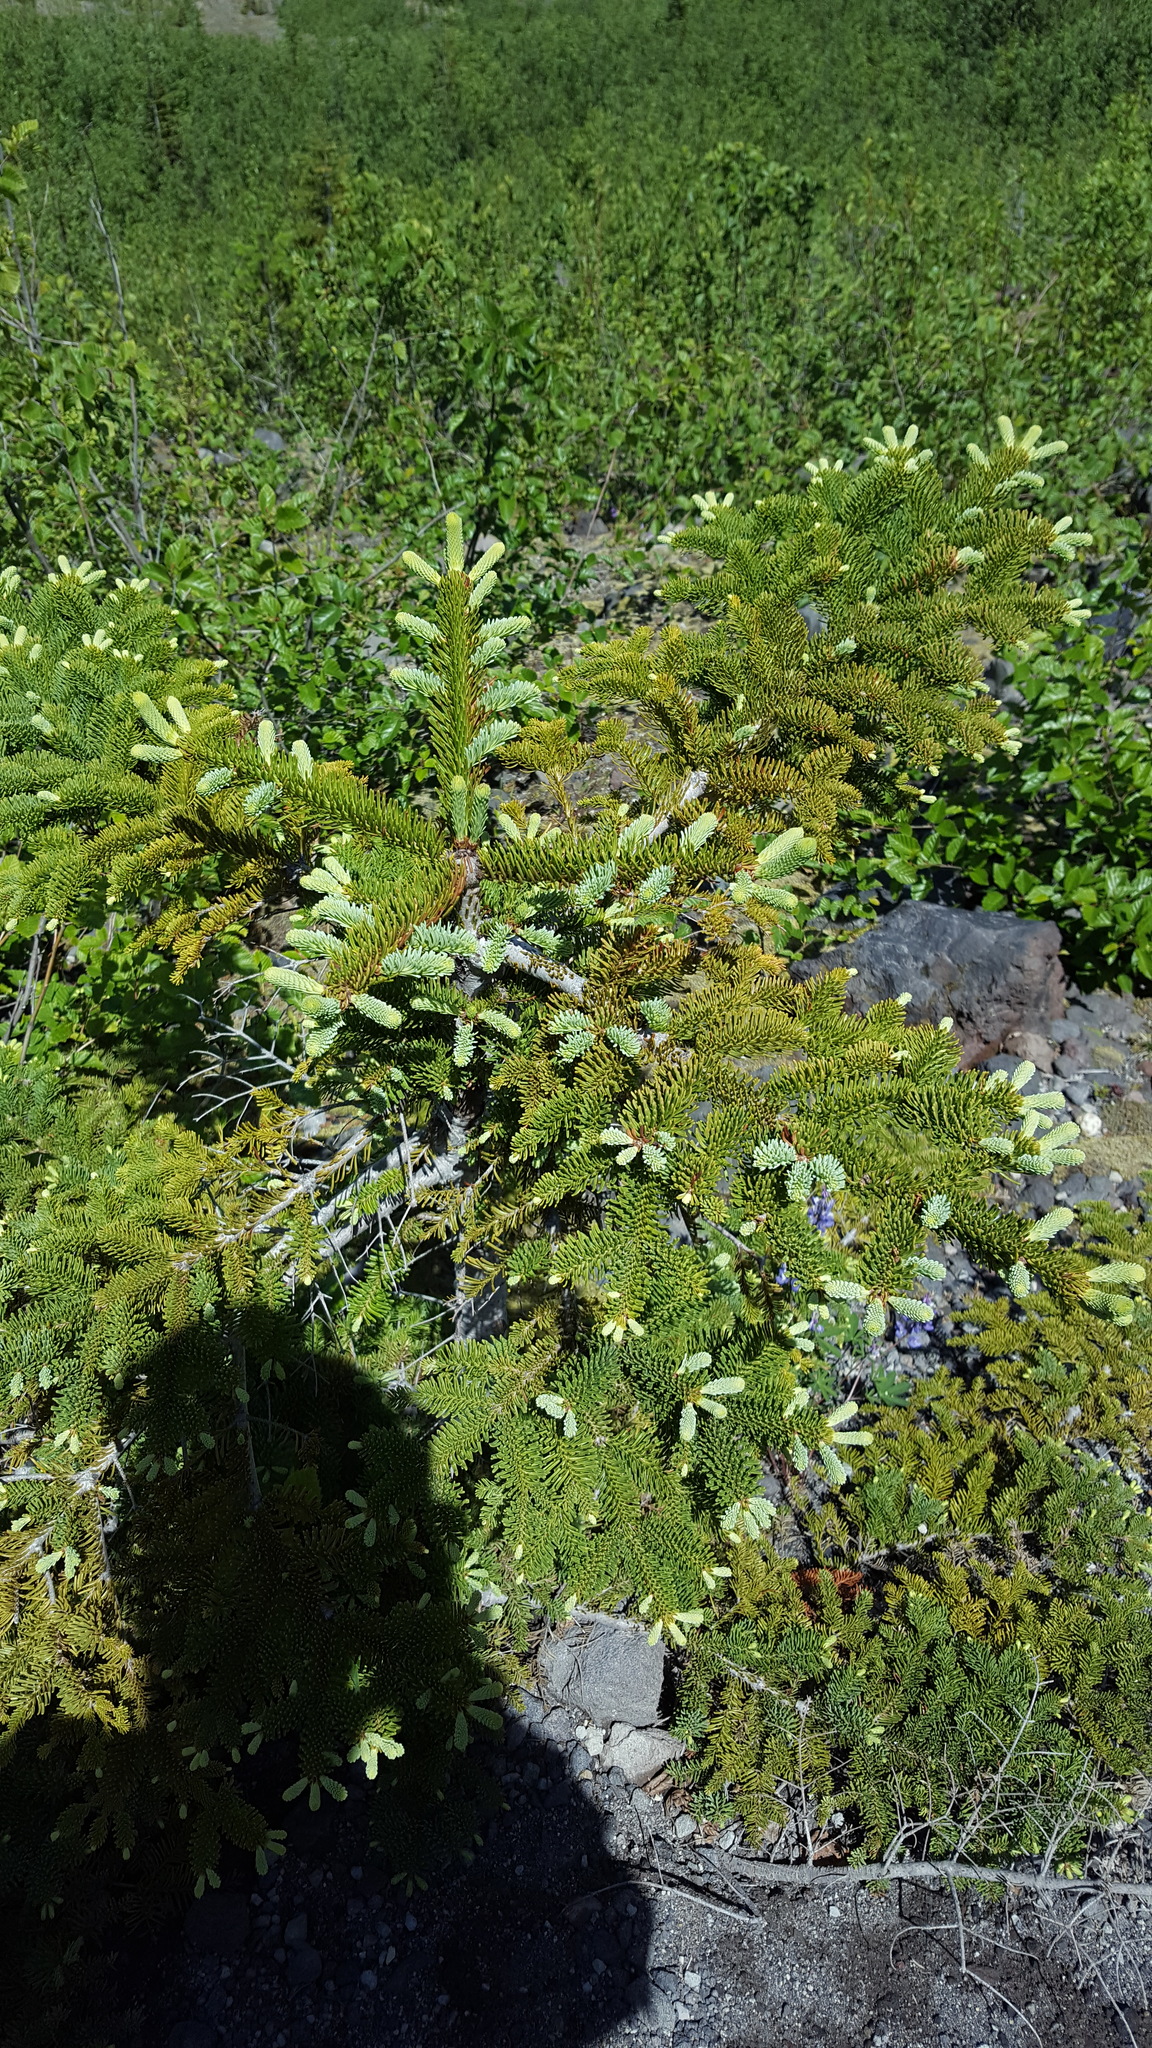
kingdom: Plantae
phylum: Tracheophyta
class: Pinopsida
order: Pinales
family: Pinaceae
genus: Abies
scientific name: Abies procera
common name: Noble fir
